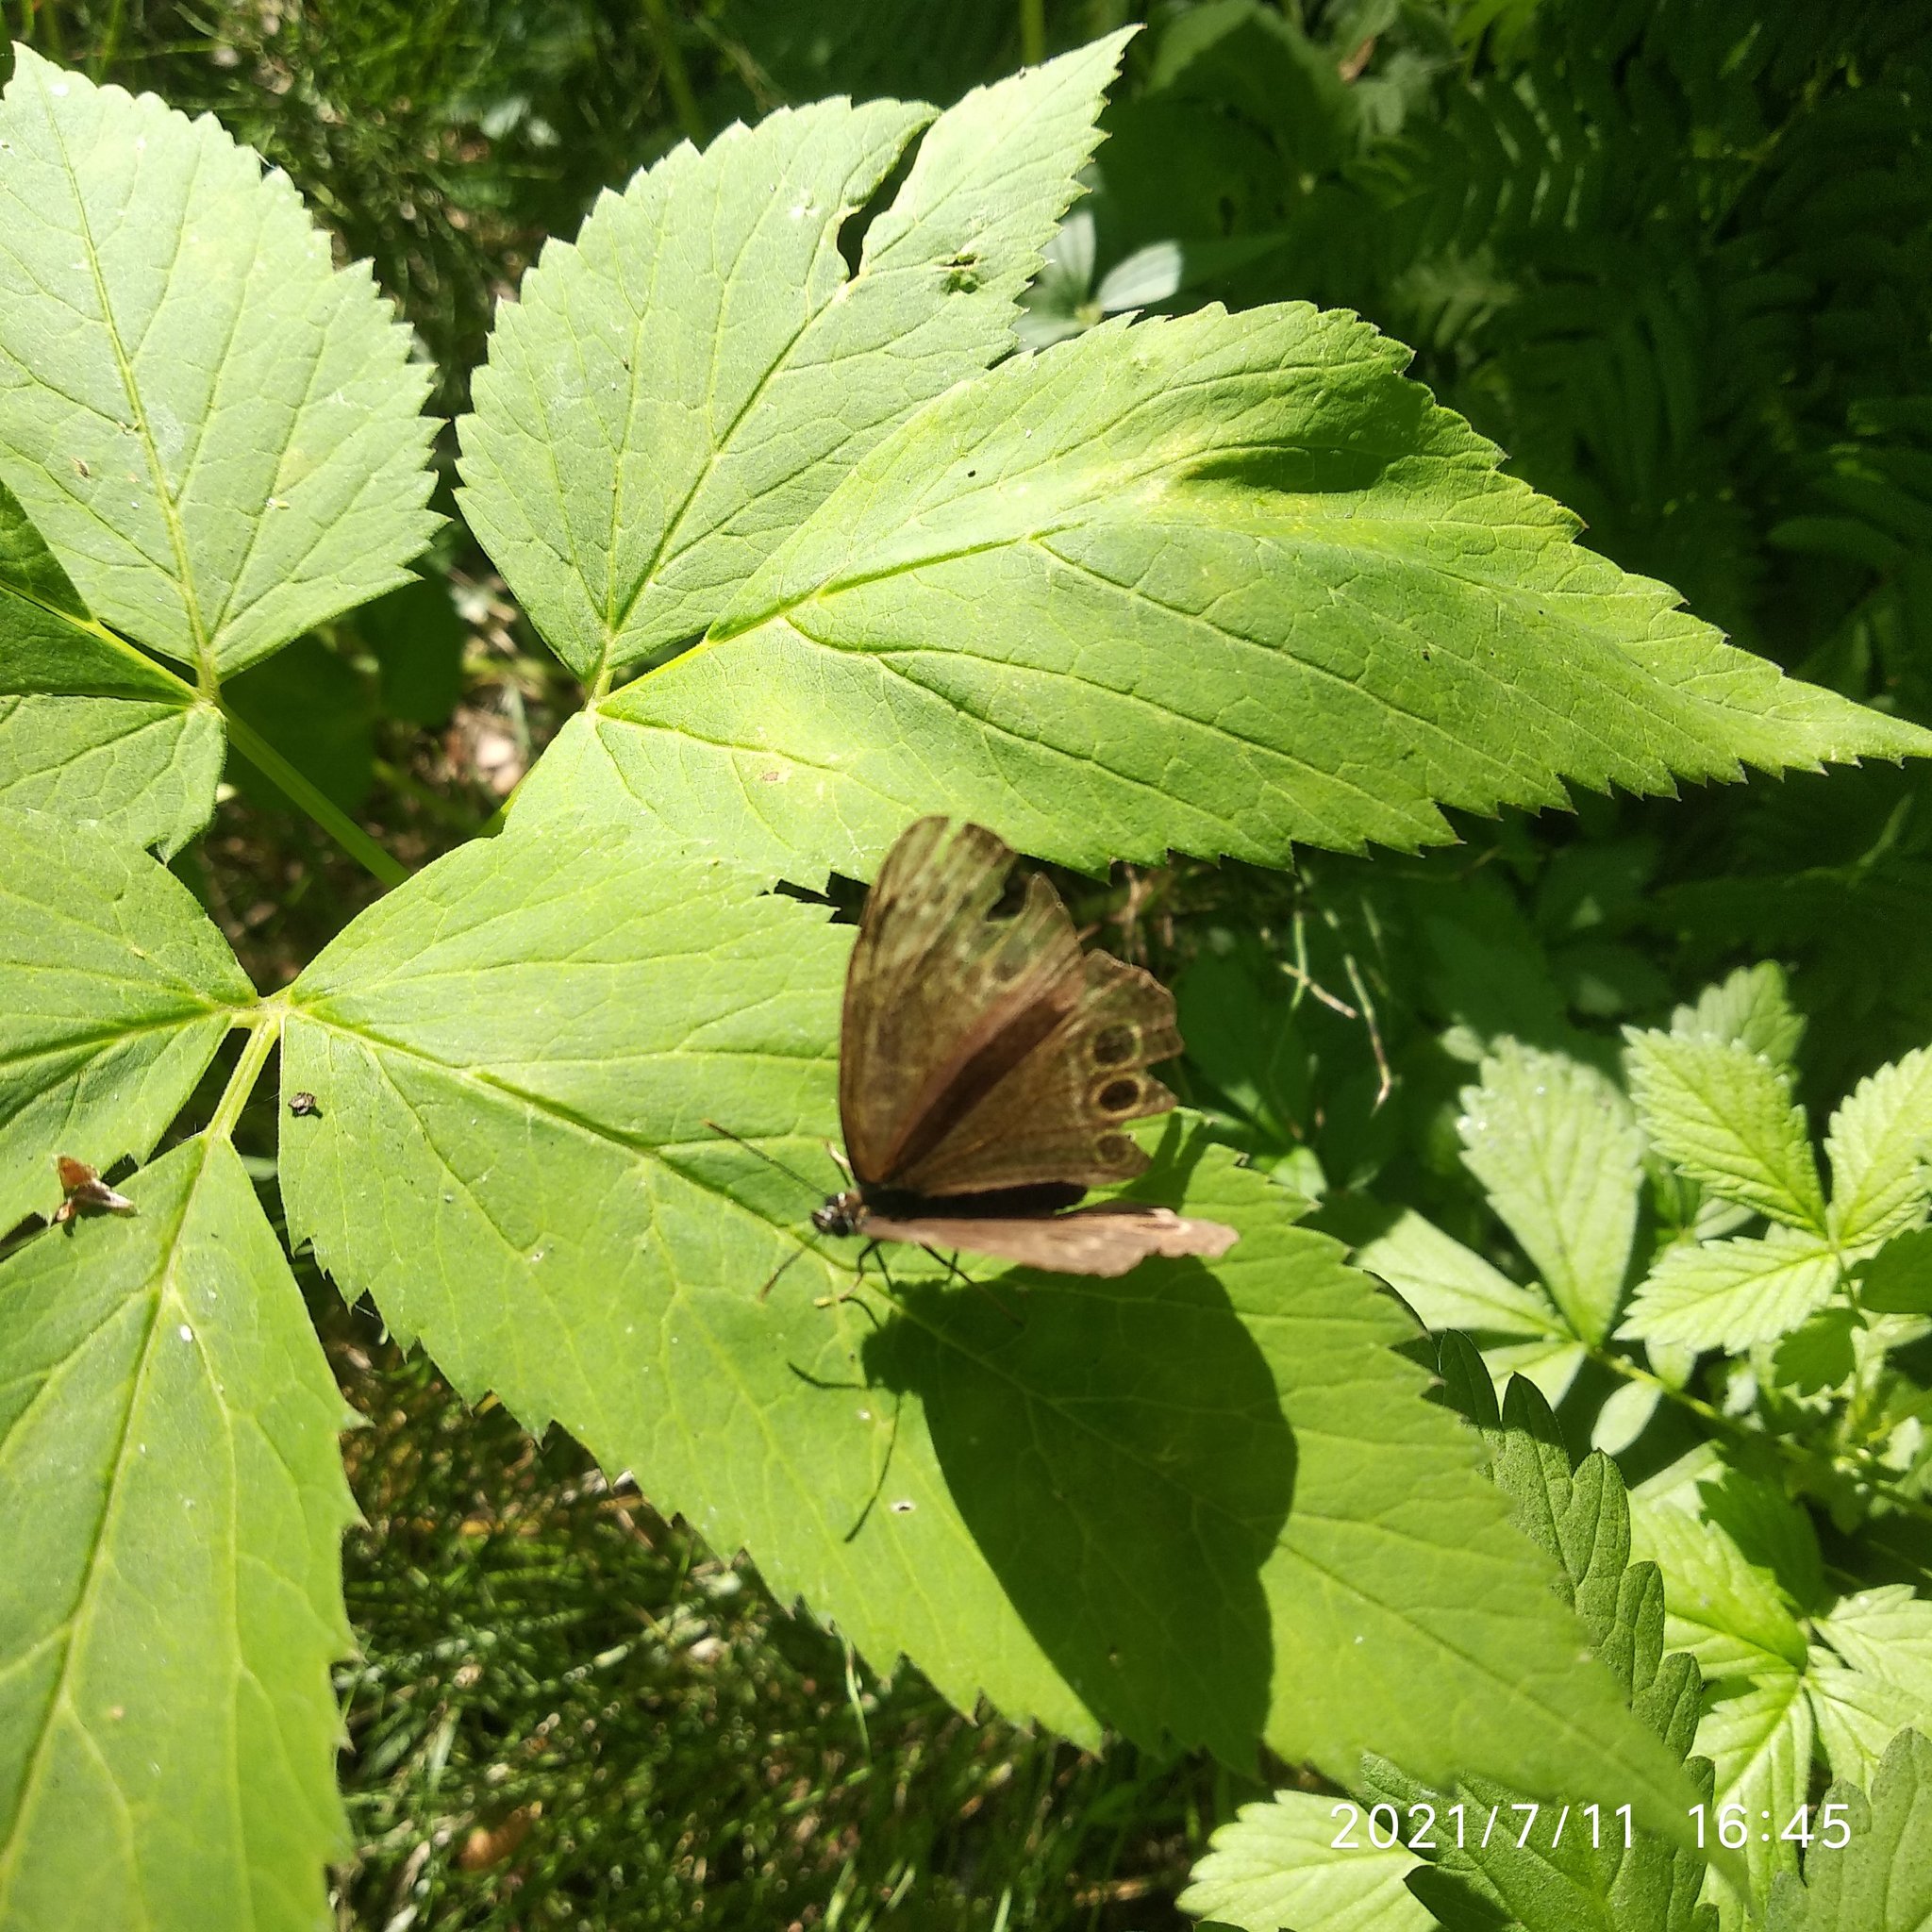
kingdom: Animalia
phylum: Arthropoda
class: Insecta
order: Lepidoptera
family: Nymphalidae
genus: Pararge
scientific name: Pararge Lopinga achine
